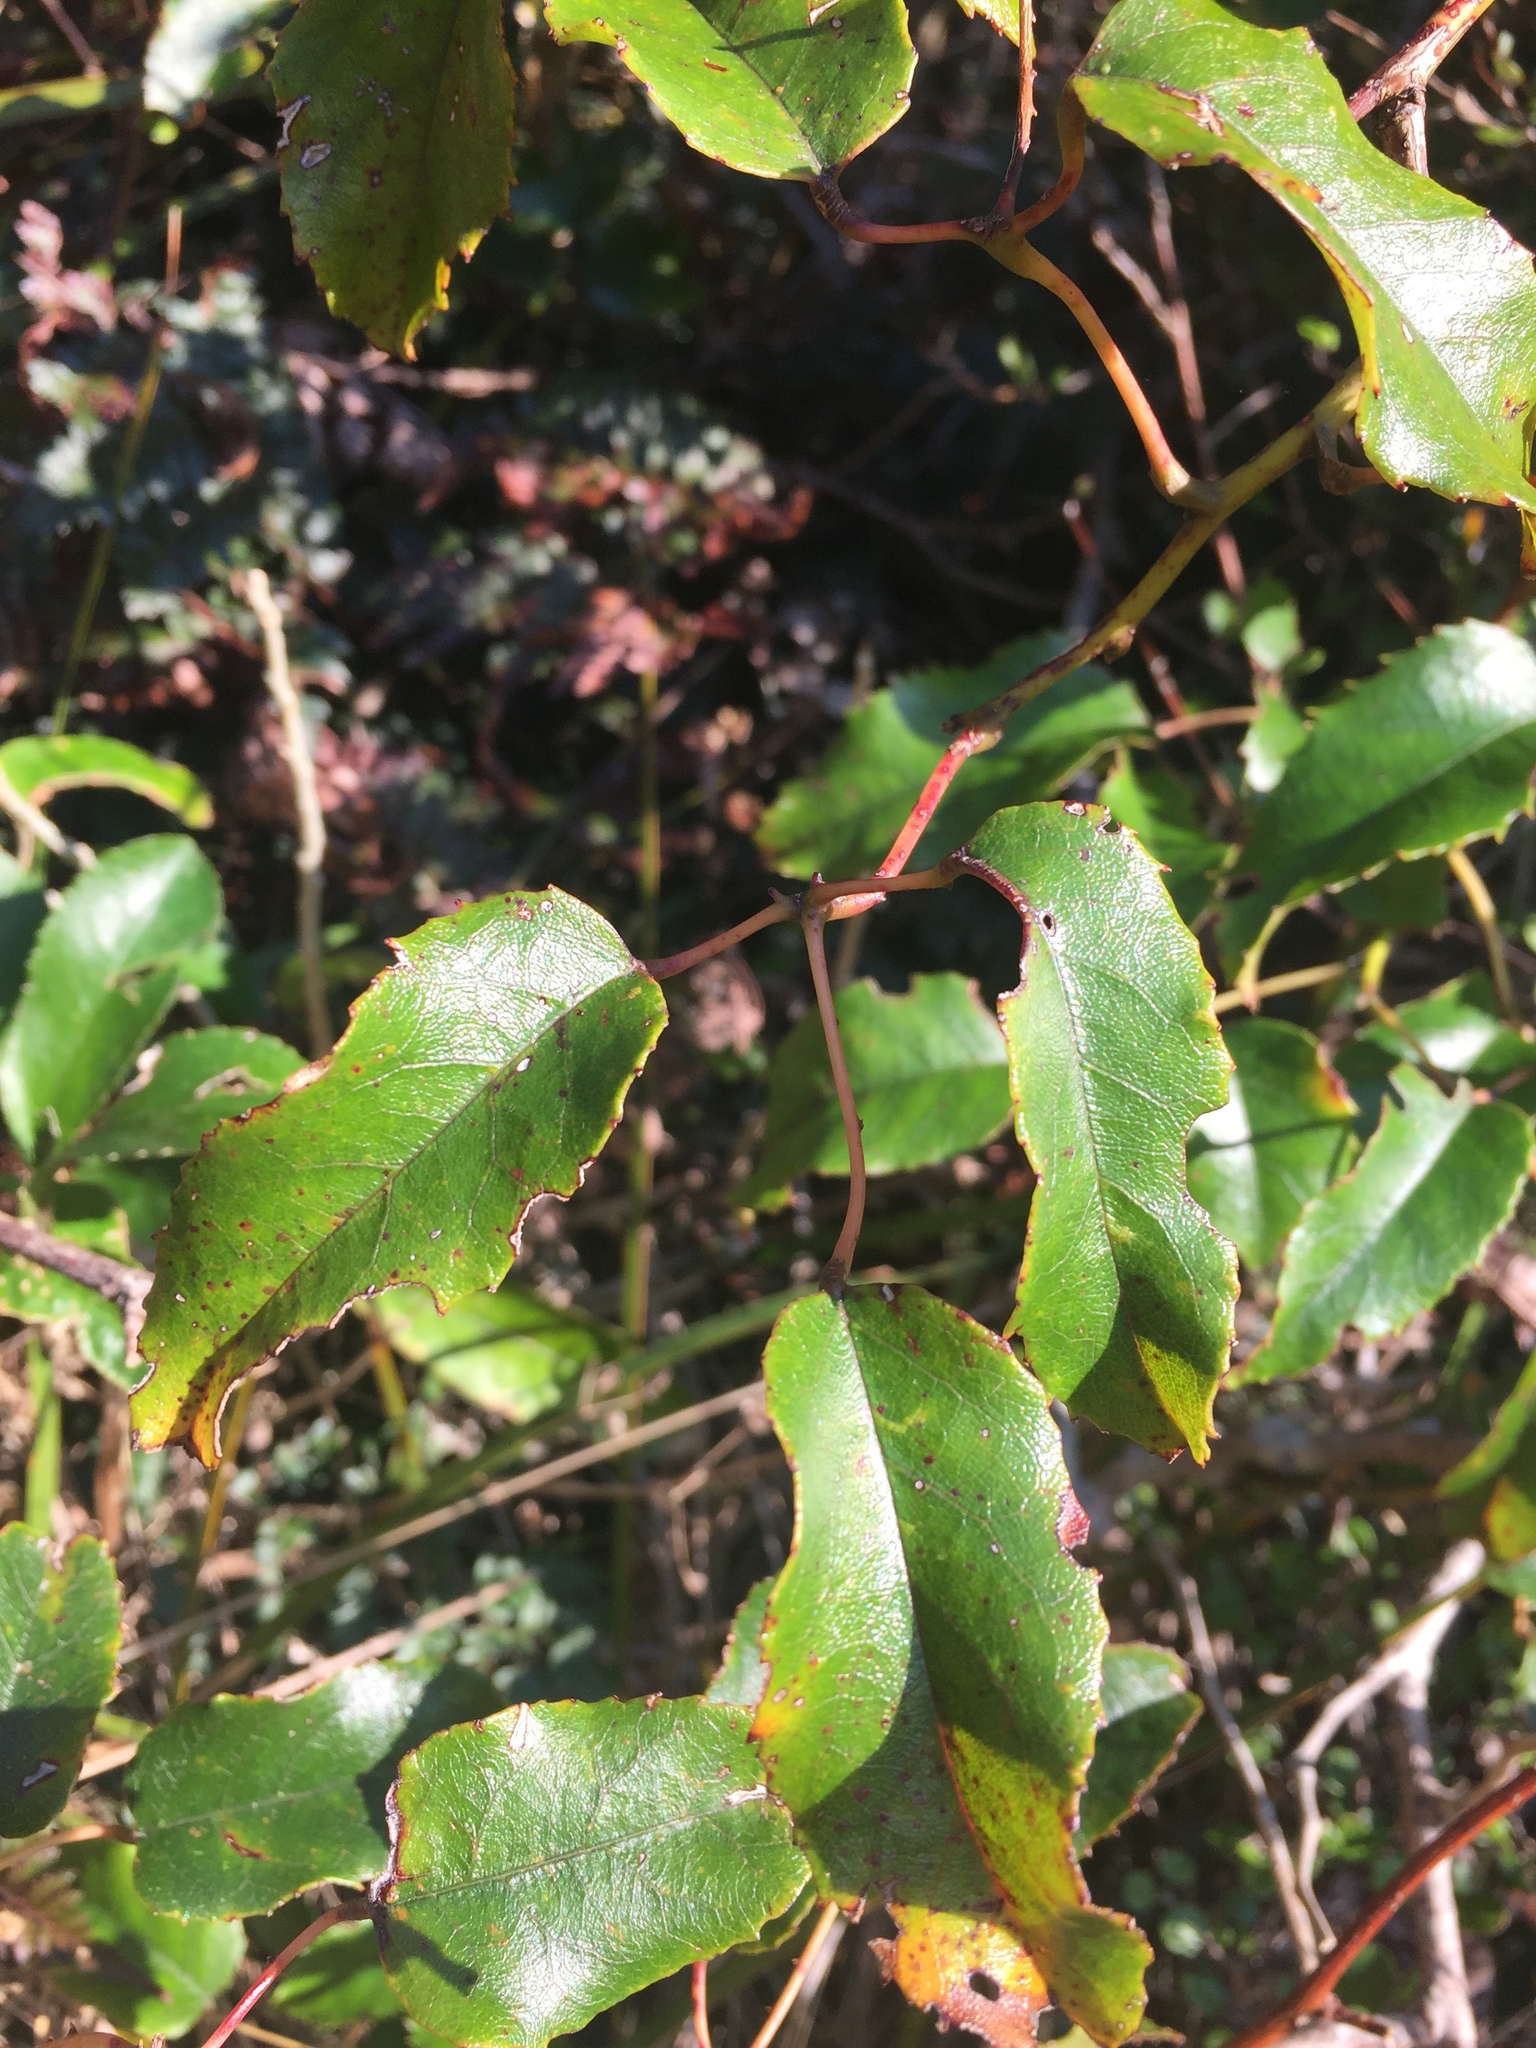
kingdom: Plantae
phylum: Tracheophyta
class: Magnoliopsida
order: Rosales
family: Rosaceae
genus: Rubus
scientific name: Rubus cissoides
